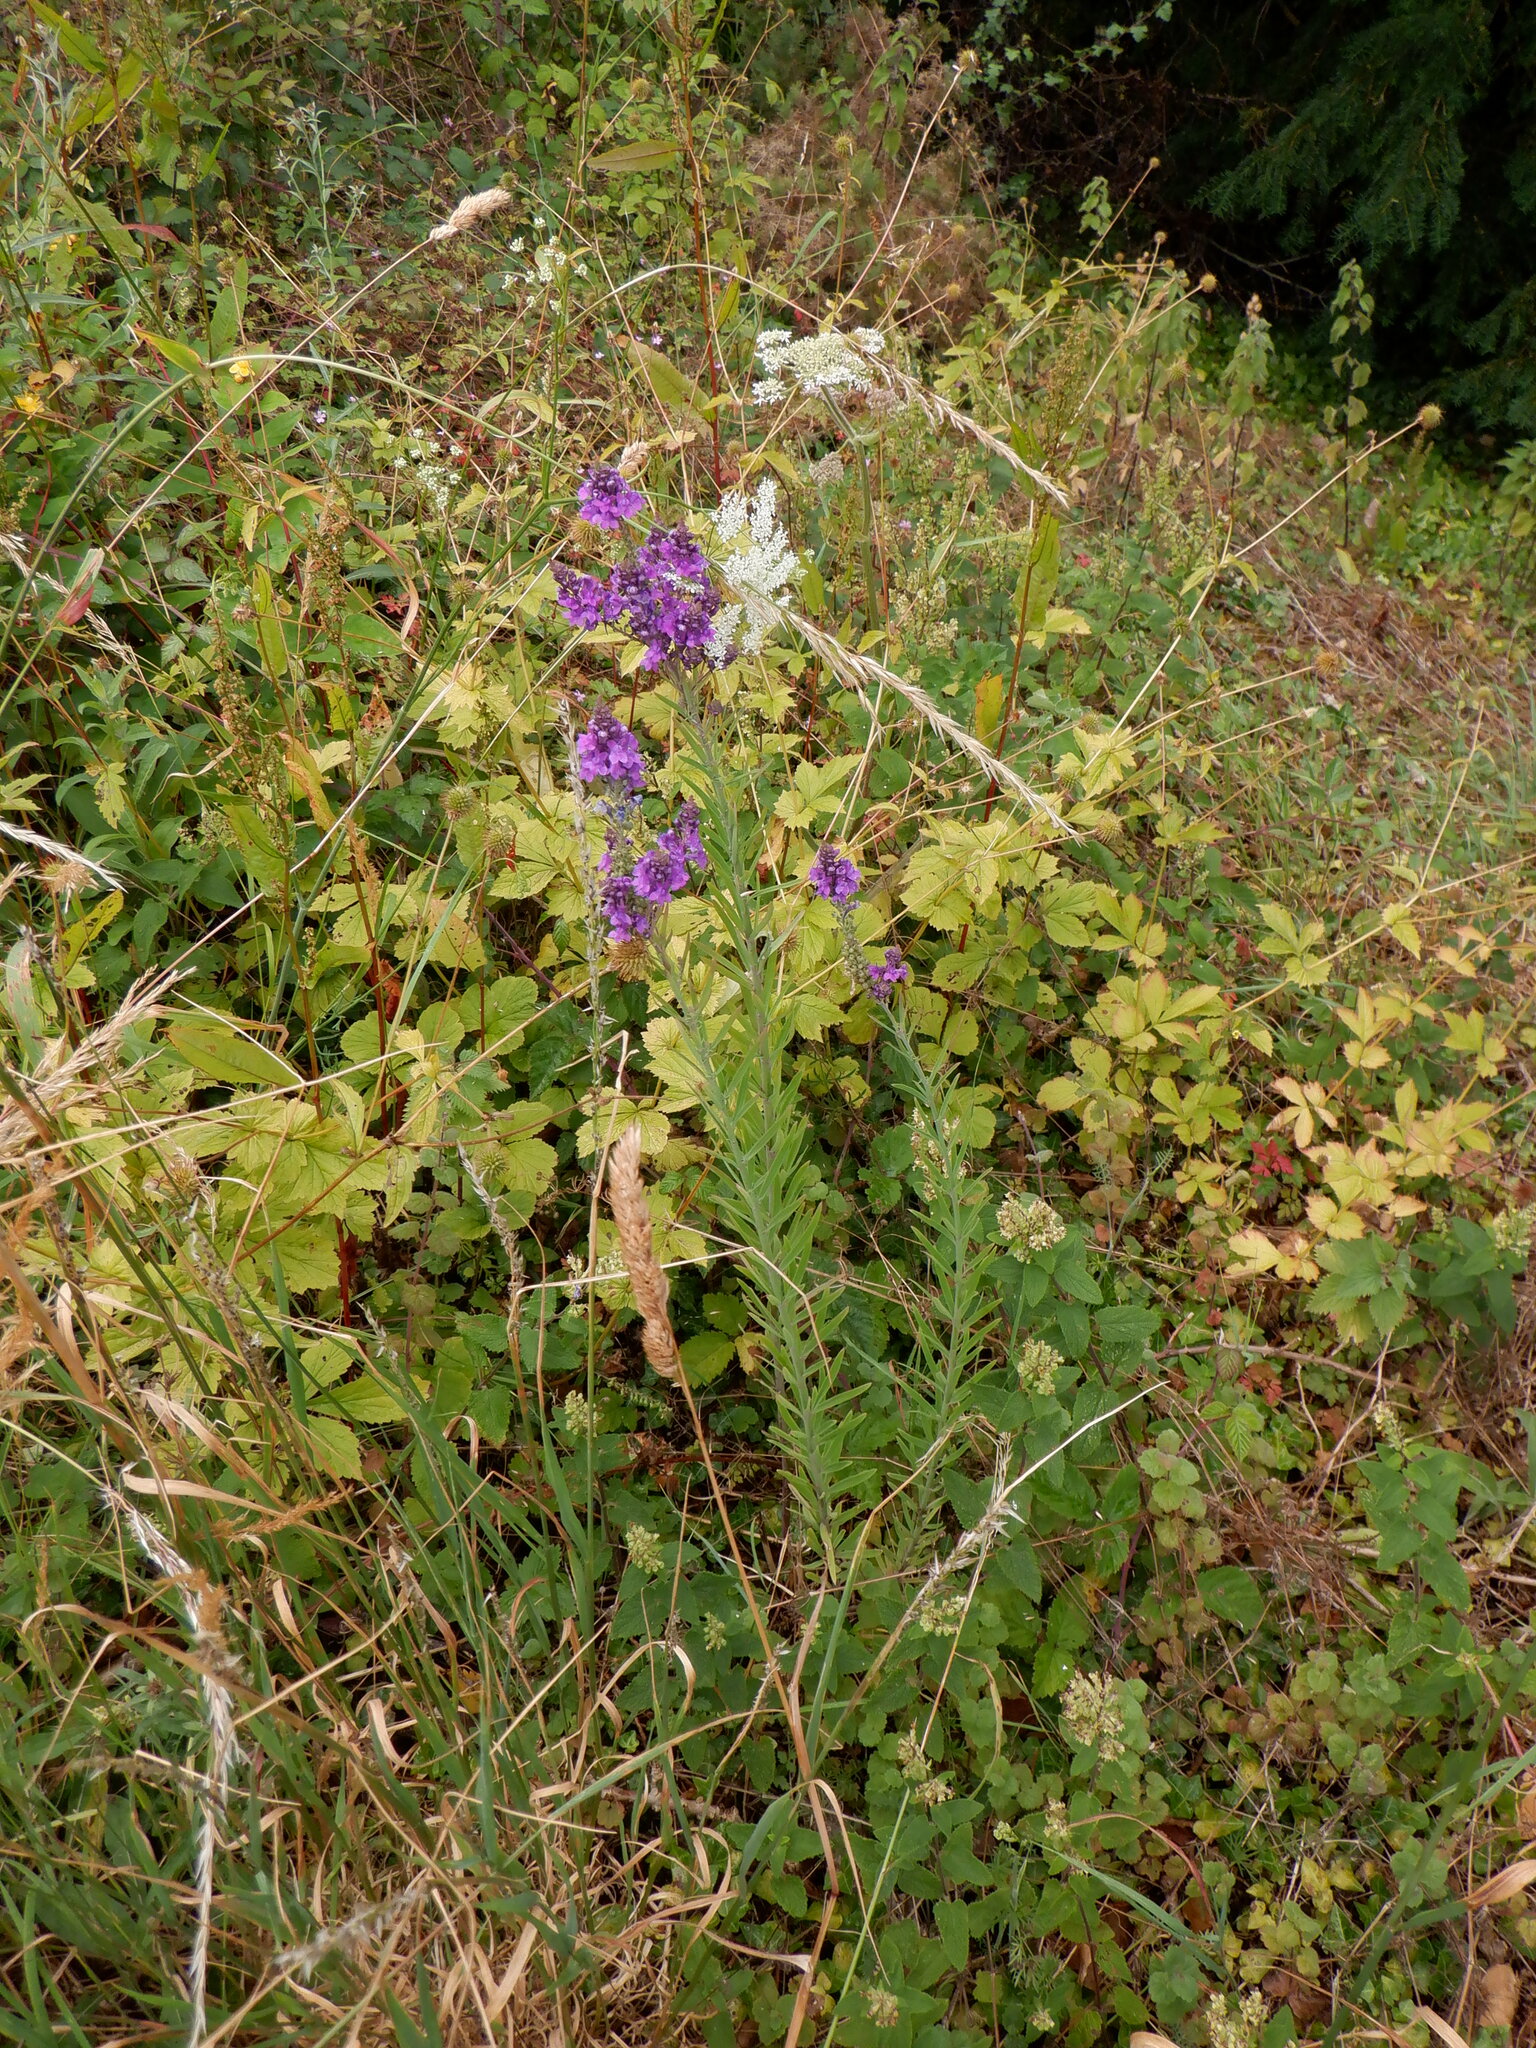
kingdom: Plantae
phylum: Tracheophyta
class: Magnoliopsida
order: Lamiales
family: Plantaginaceae
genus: Linaria
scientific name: Linaria purpurea
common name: Purple toadflax
